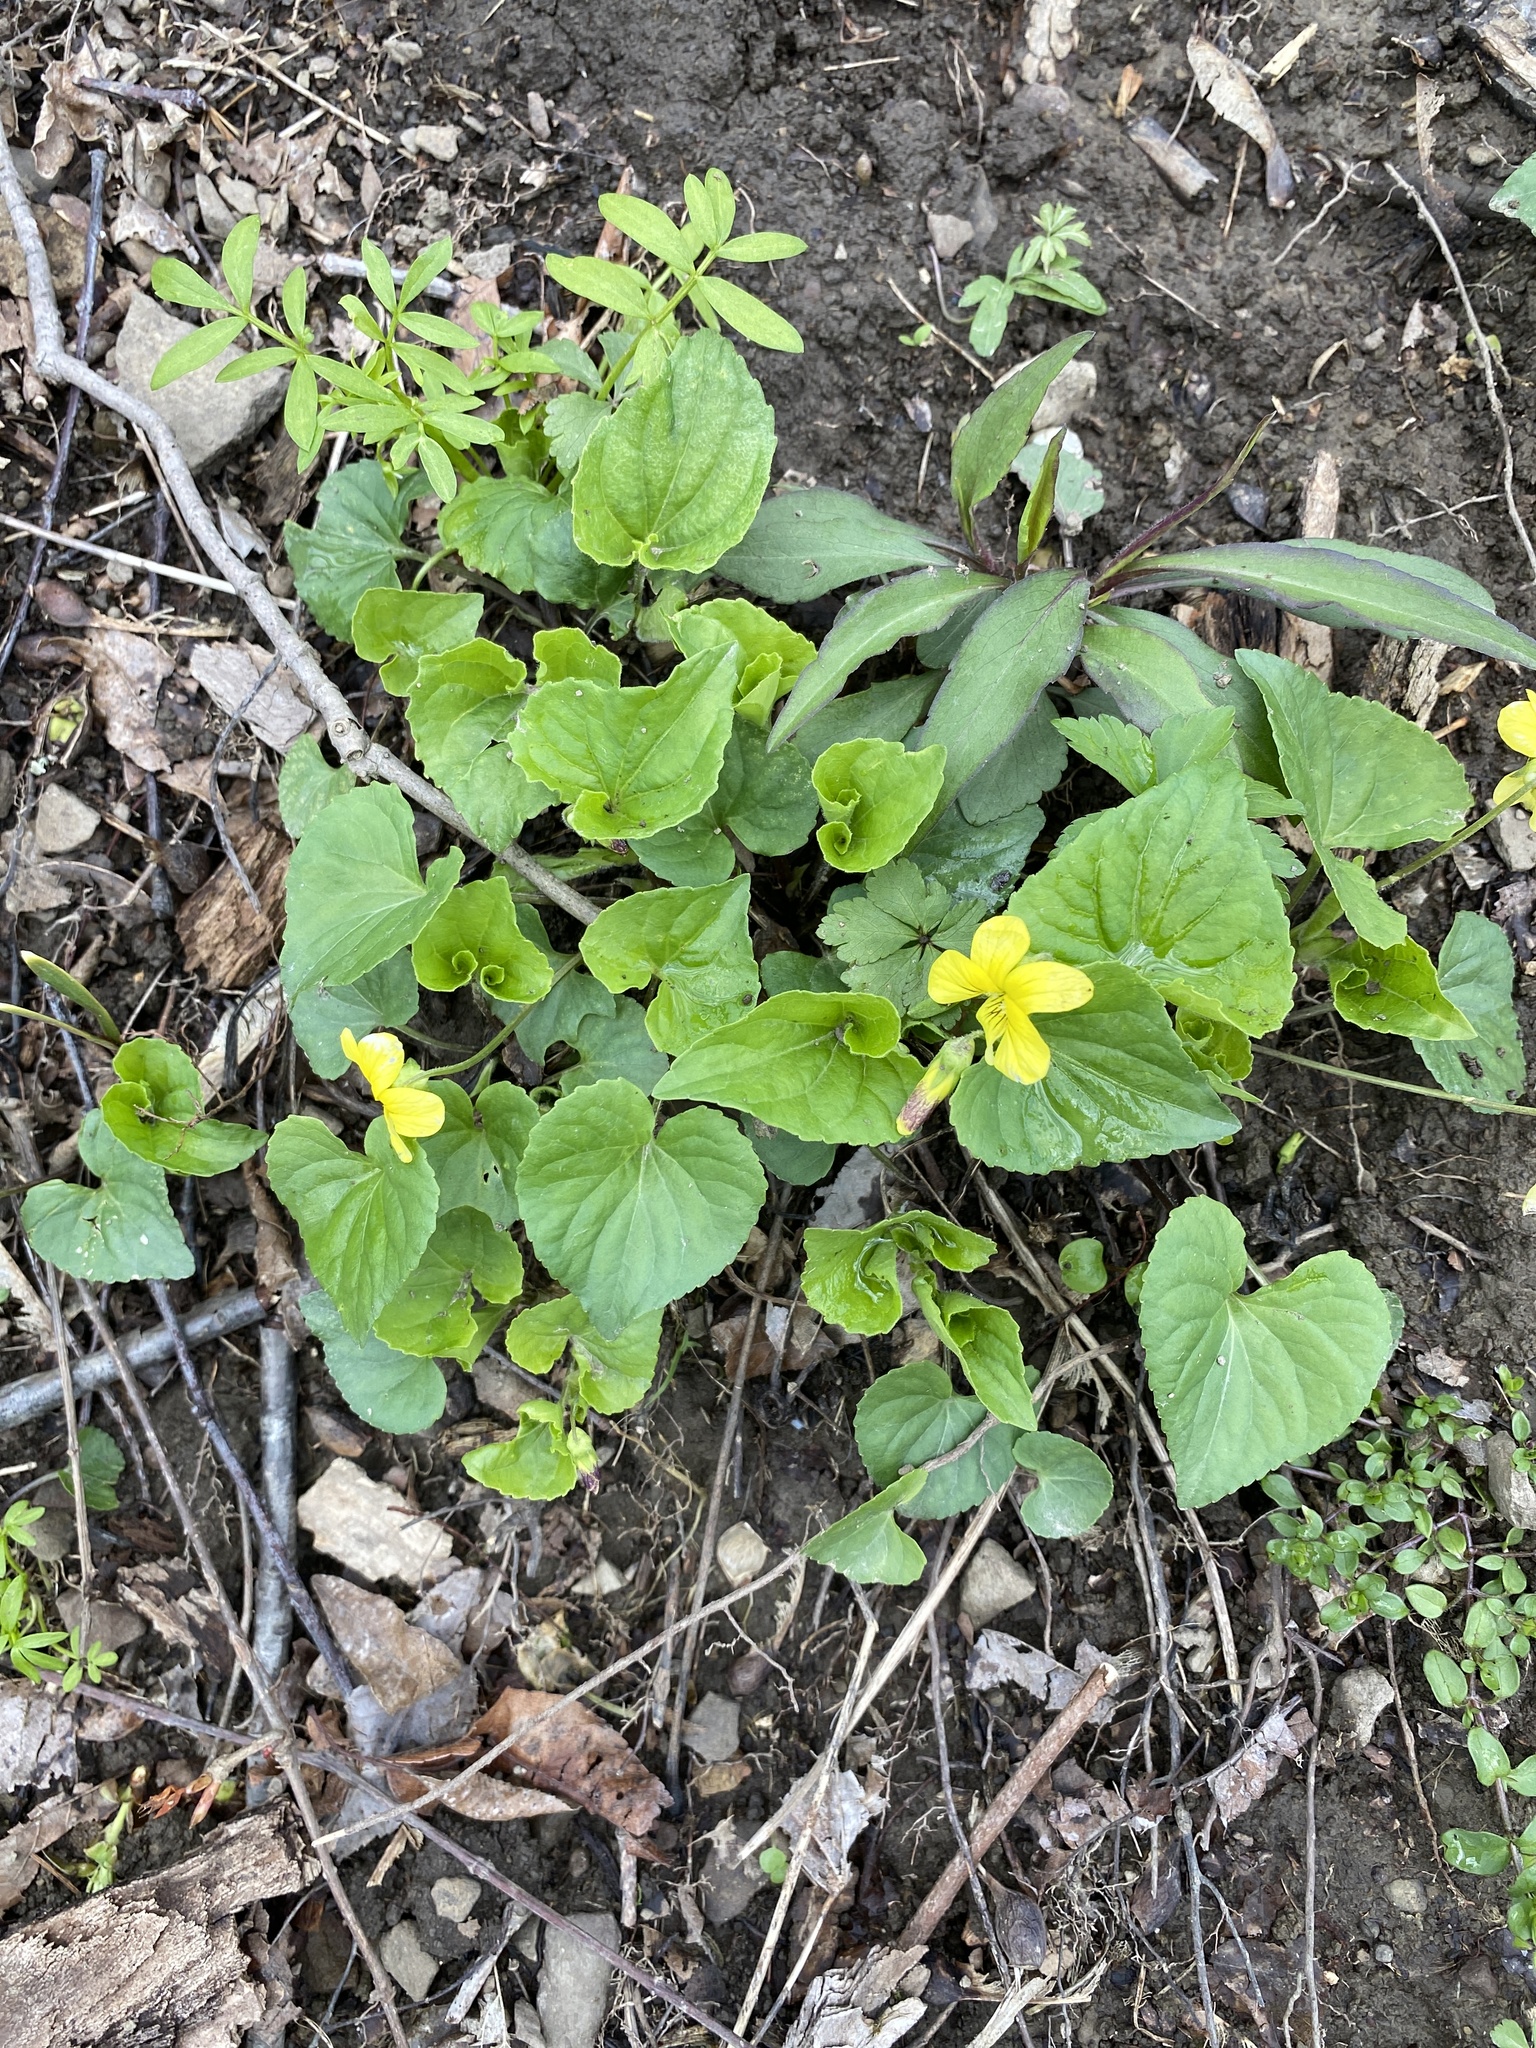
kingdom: Plantae
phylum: Tracheophyta
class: Magnoliopsida
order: Malpighiales
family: Violaceae
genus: Viola
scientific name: Viola eriocarpa
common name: Smooth yellow violet
